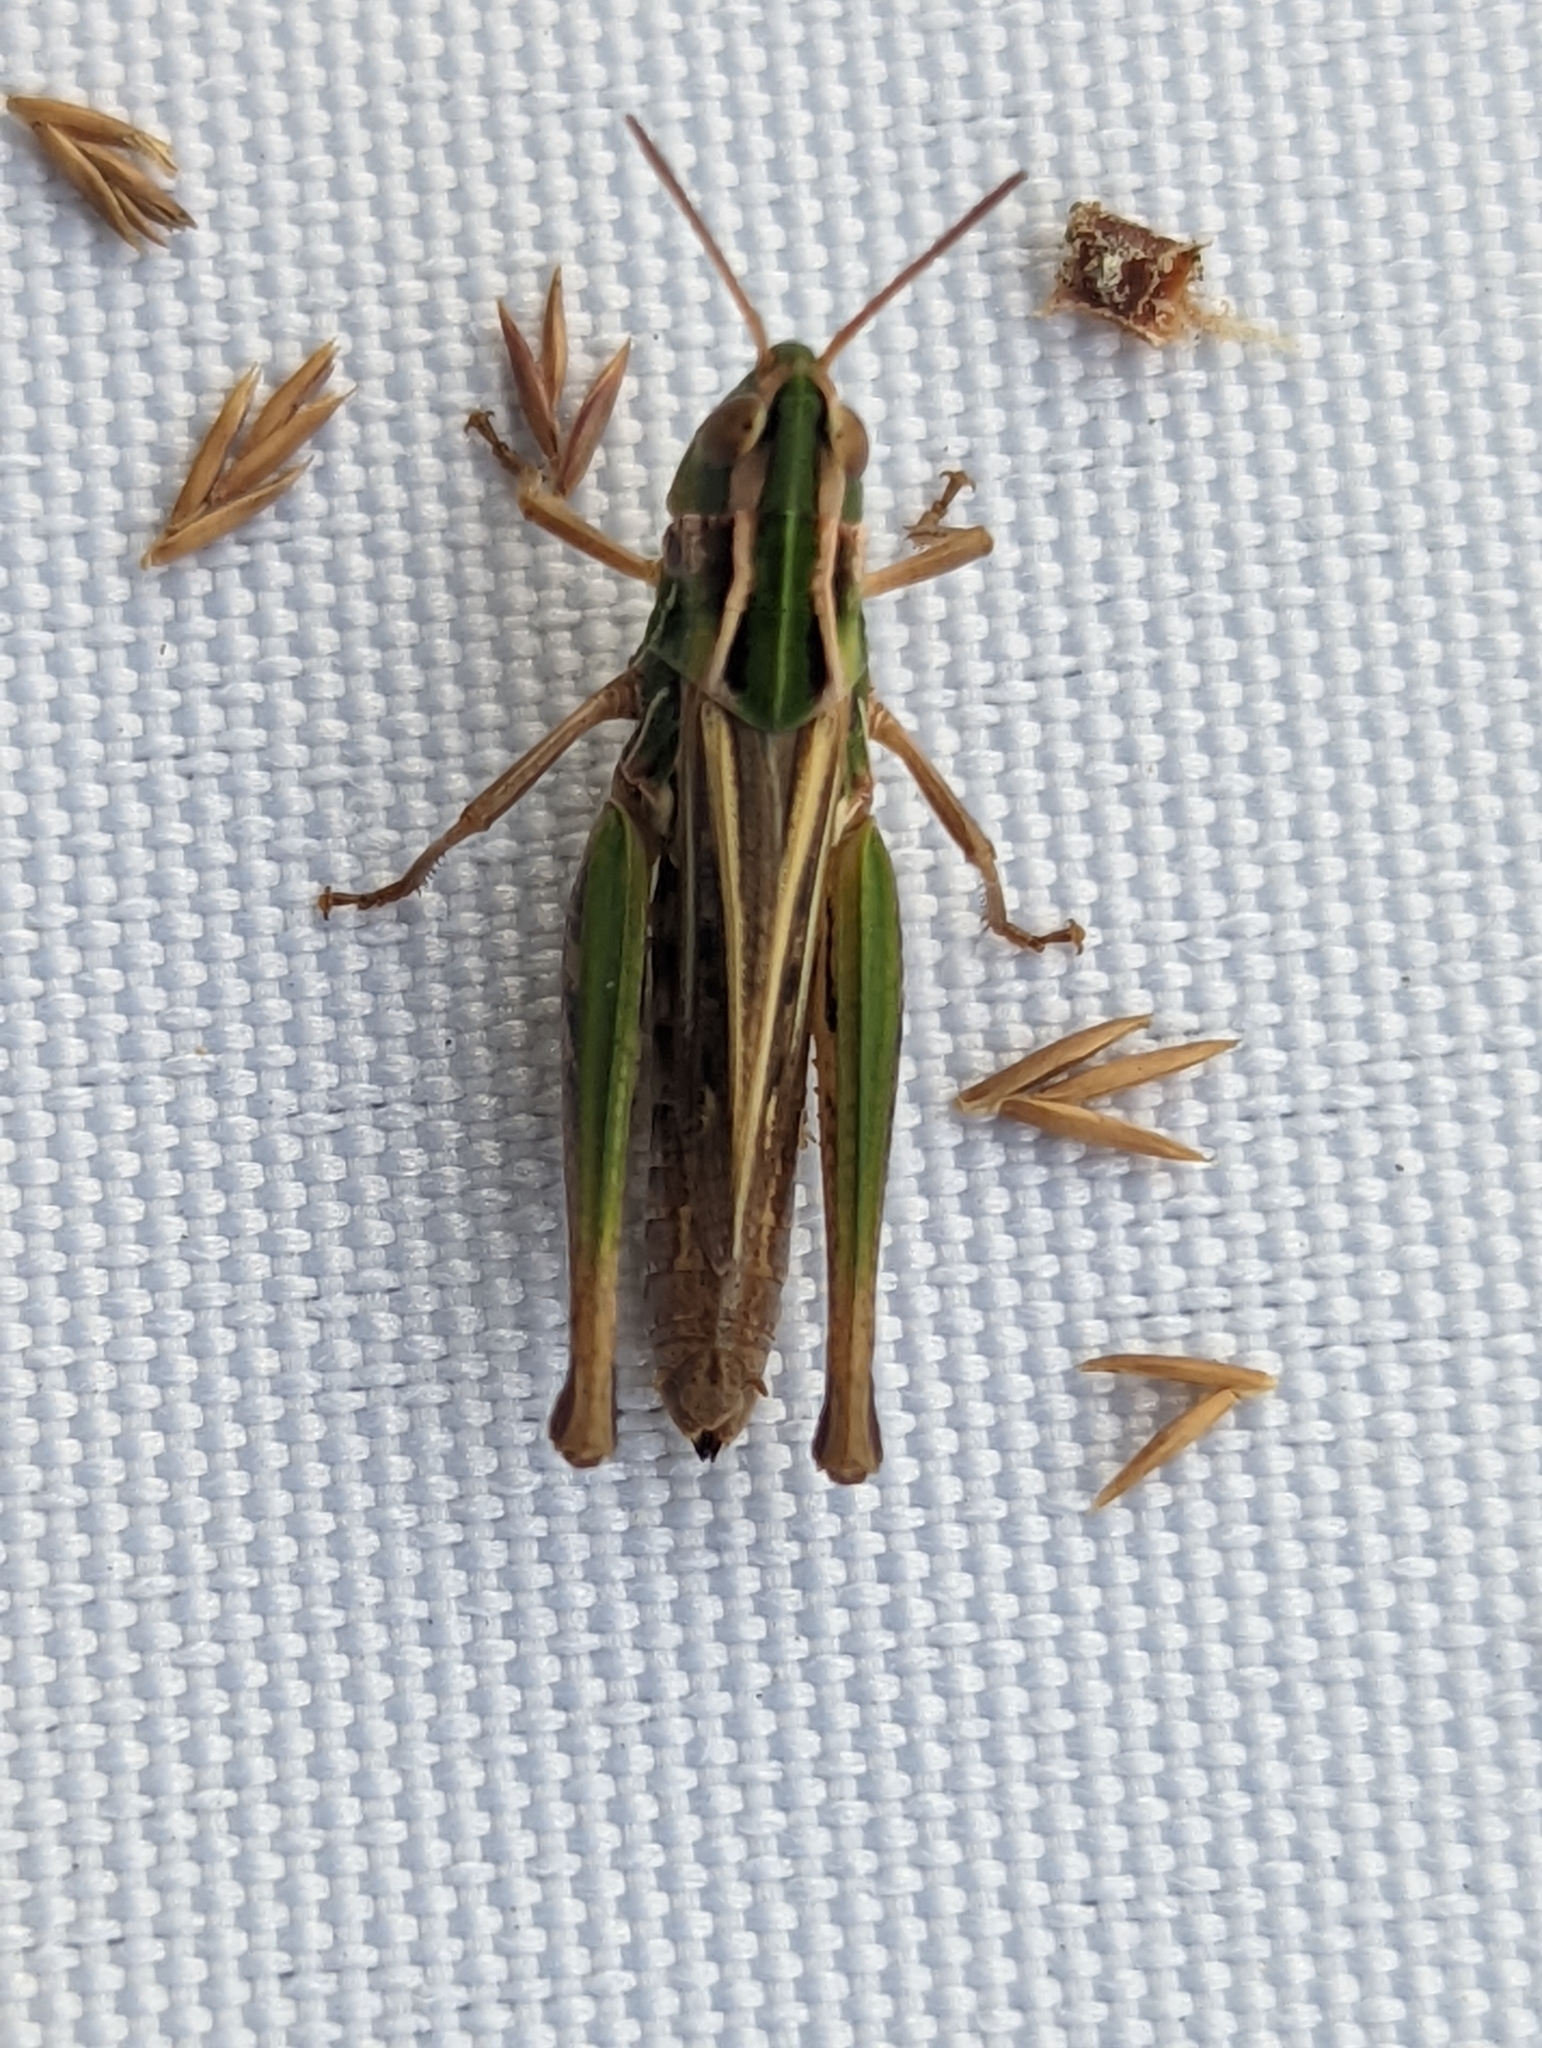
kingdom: Animalia
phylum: Arthropoda
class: Insecta
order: Orthoptera
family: Acrididae
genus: Stenobothrus
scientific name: Stenobothrus stigmaticus
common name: Lesser mottled grasshopper
